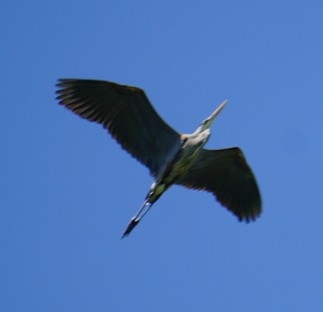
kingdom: Animalia
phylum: Chordata
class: Aves
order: Pelecaniformes
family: Ardeidae
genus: Ardea
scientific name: Ardea herodias
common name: Great blue heron
